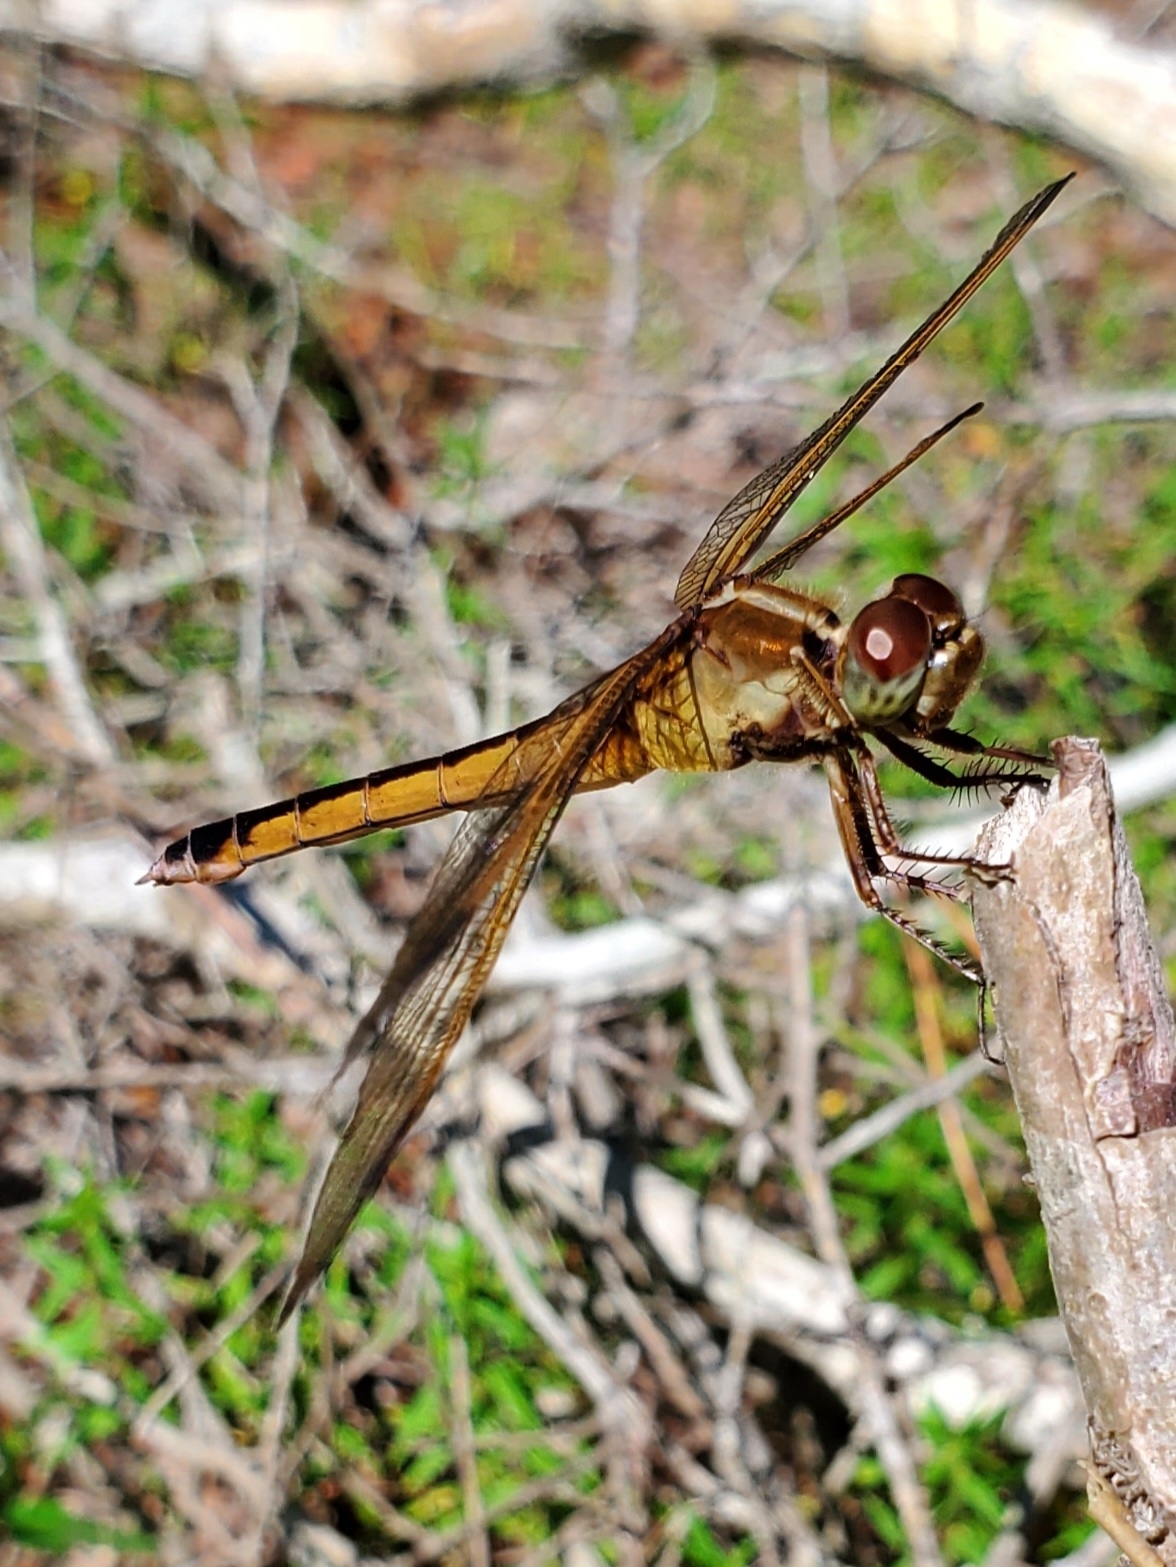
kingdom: Animalia
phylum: Arthropoda
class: Insecta
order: Odonata
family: Libellulidae
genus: Libellula
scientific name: Libellula needhami
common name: Needham's skimmer
